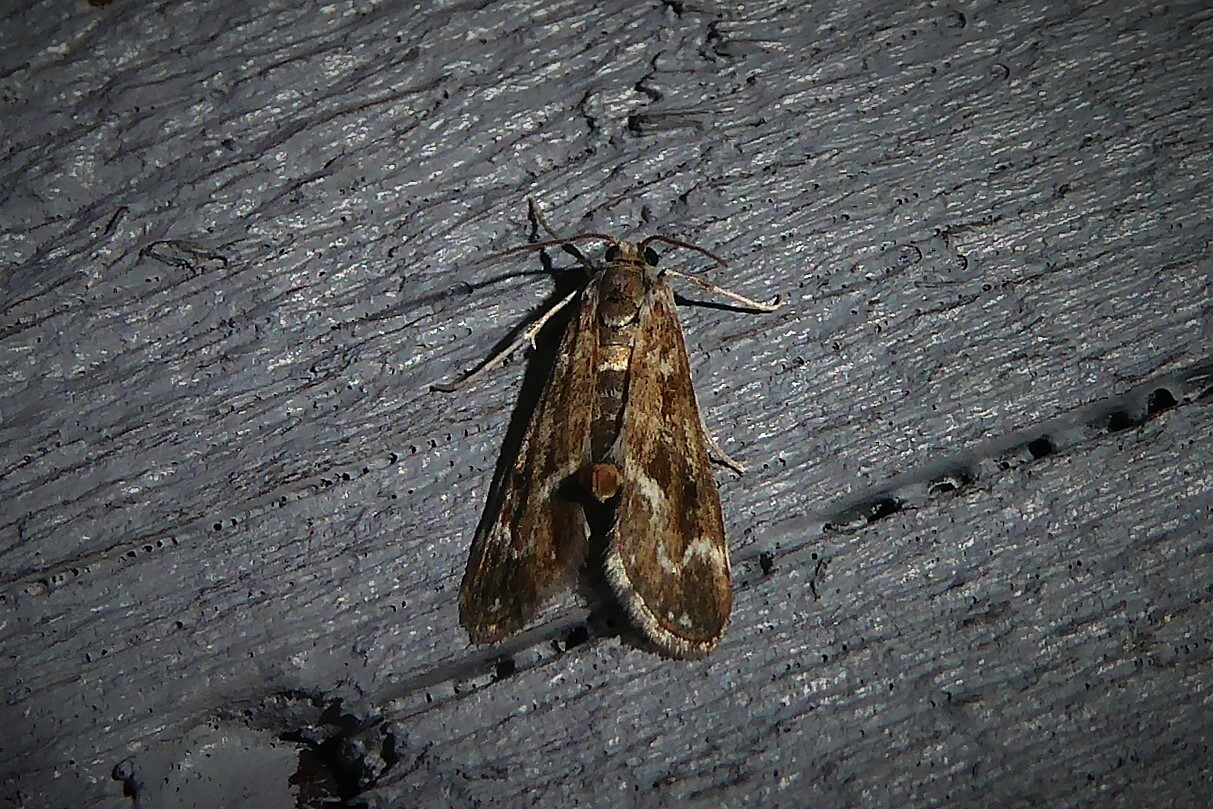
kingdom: Animalia
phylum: Arthropoda
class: Insecta
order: Lepidoptera
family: Crambidae
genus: Hygraula
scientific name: Hygraula nitens
